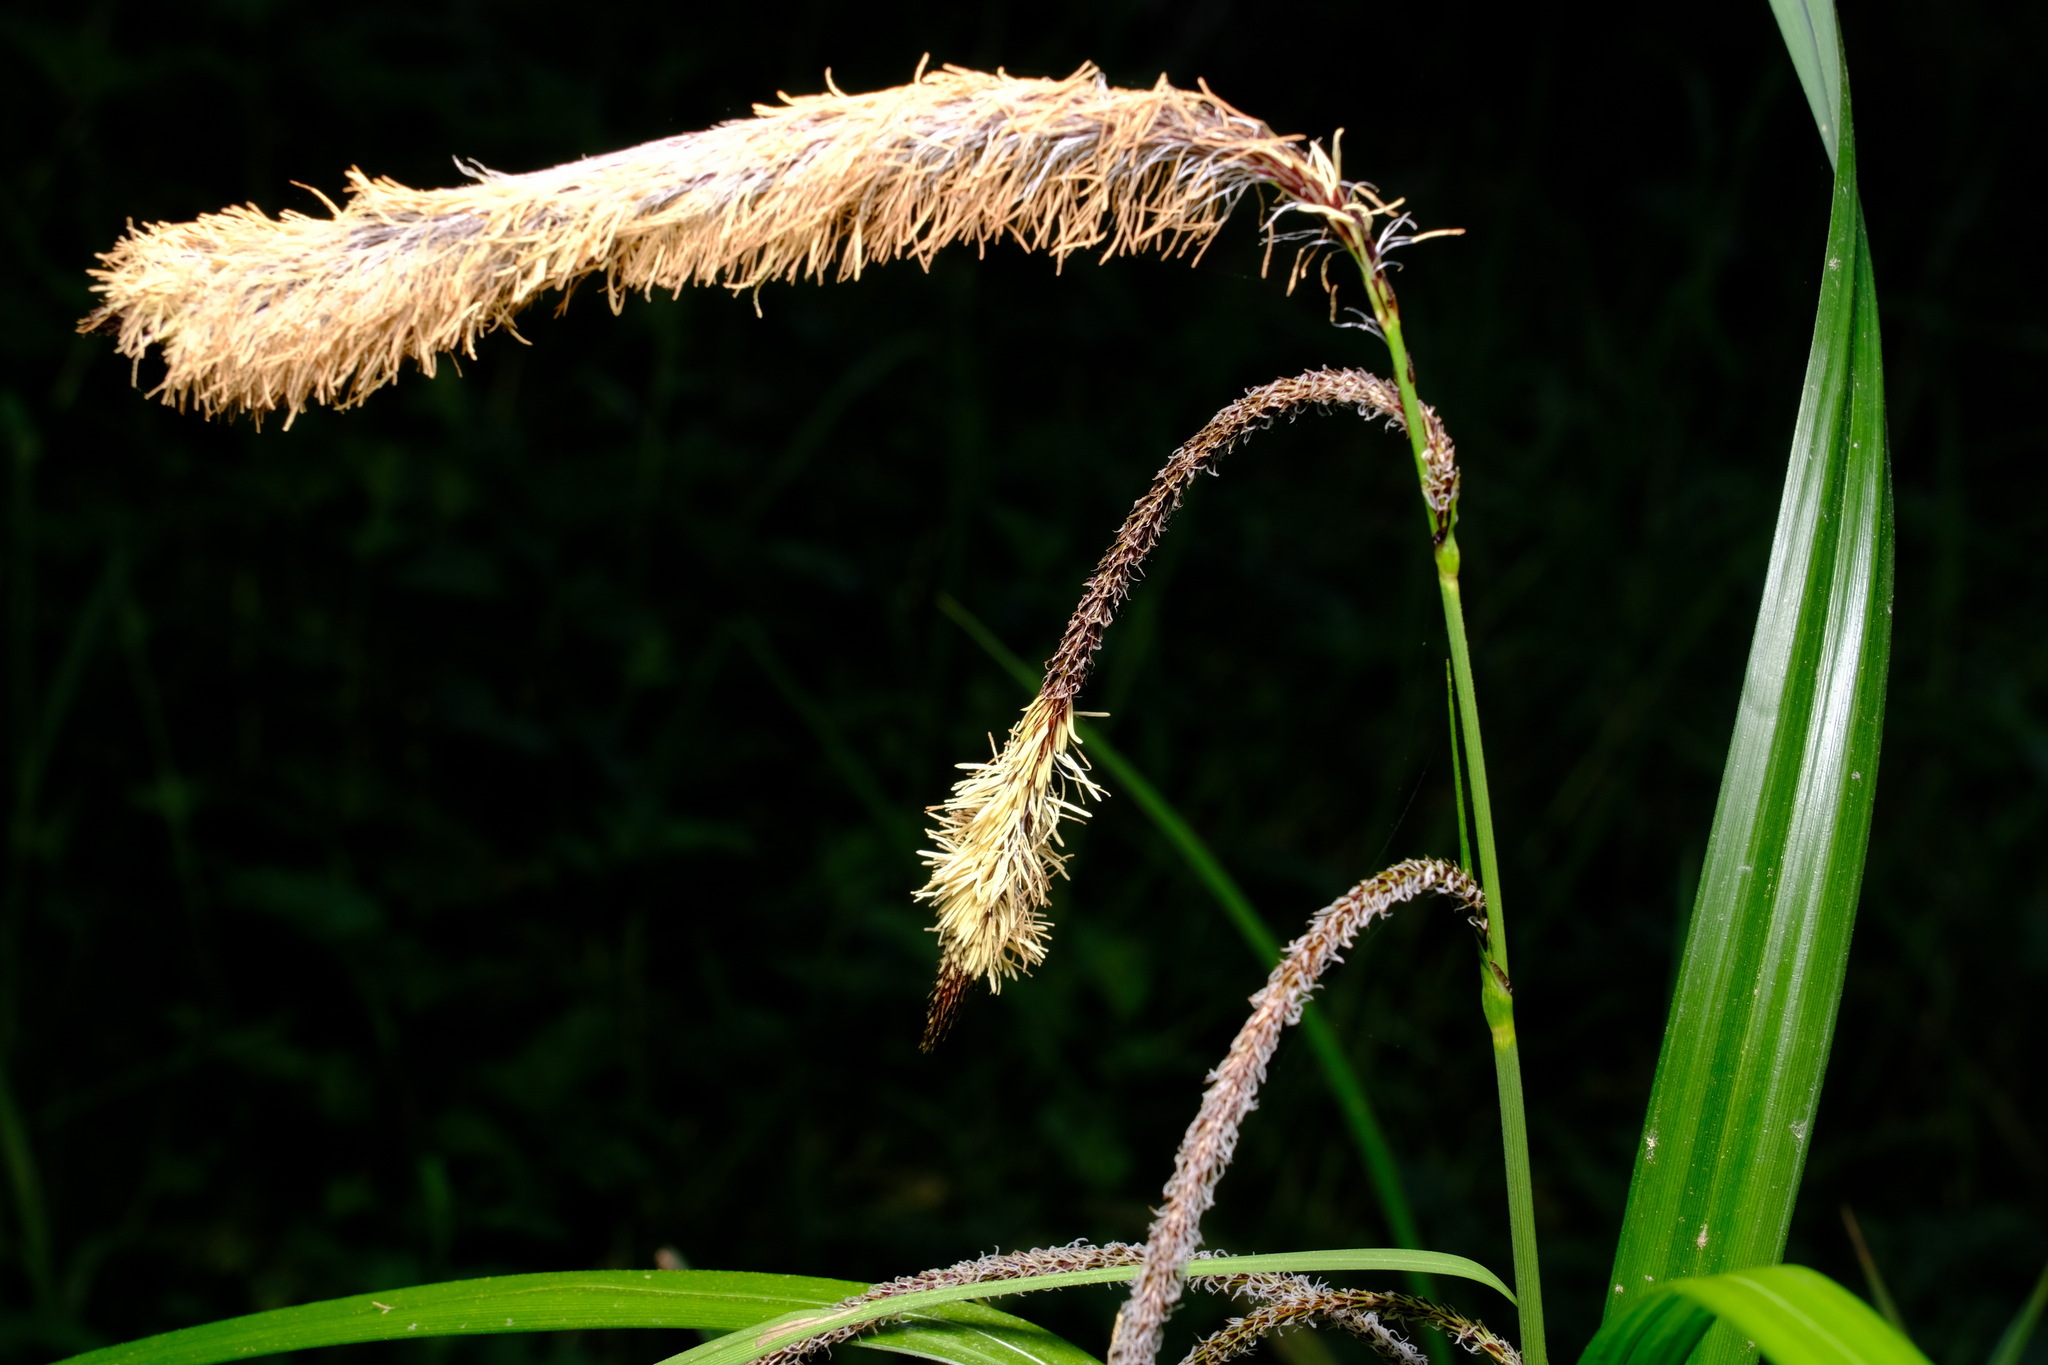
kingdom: Plantae
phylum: Tracheophyta
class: Liliopsida
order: Poales
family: Cyperaceae
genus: Carex
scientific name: Carex pendula
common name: Pendulous sedge
